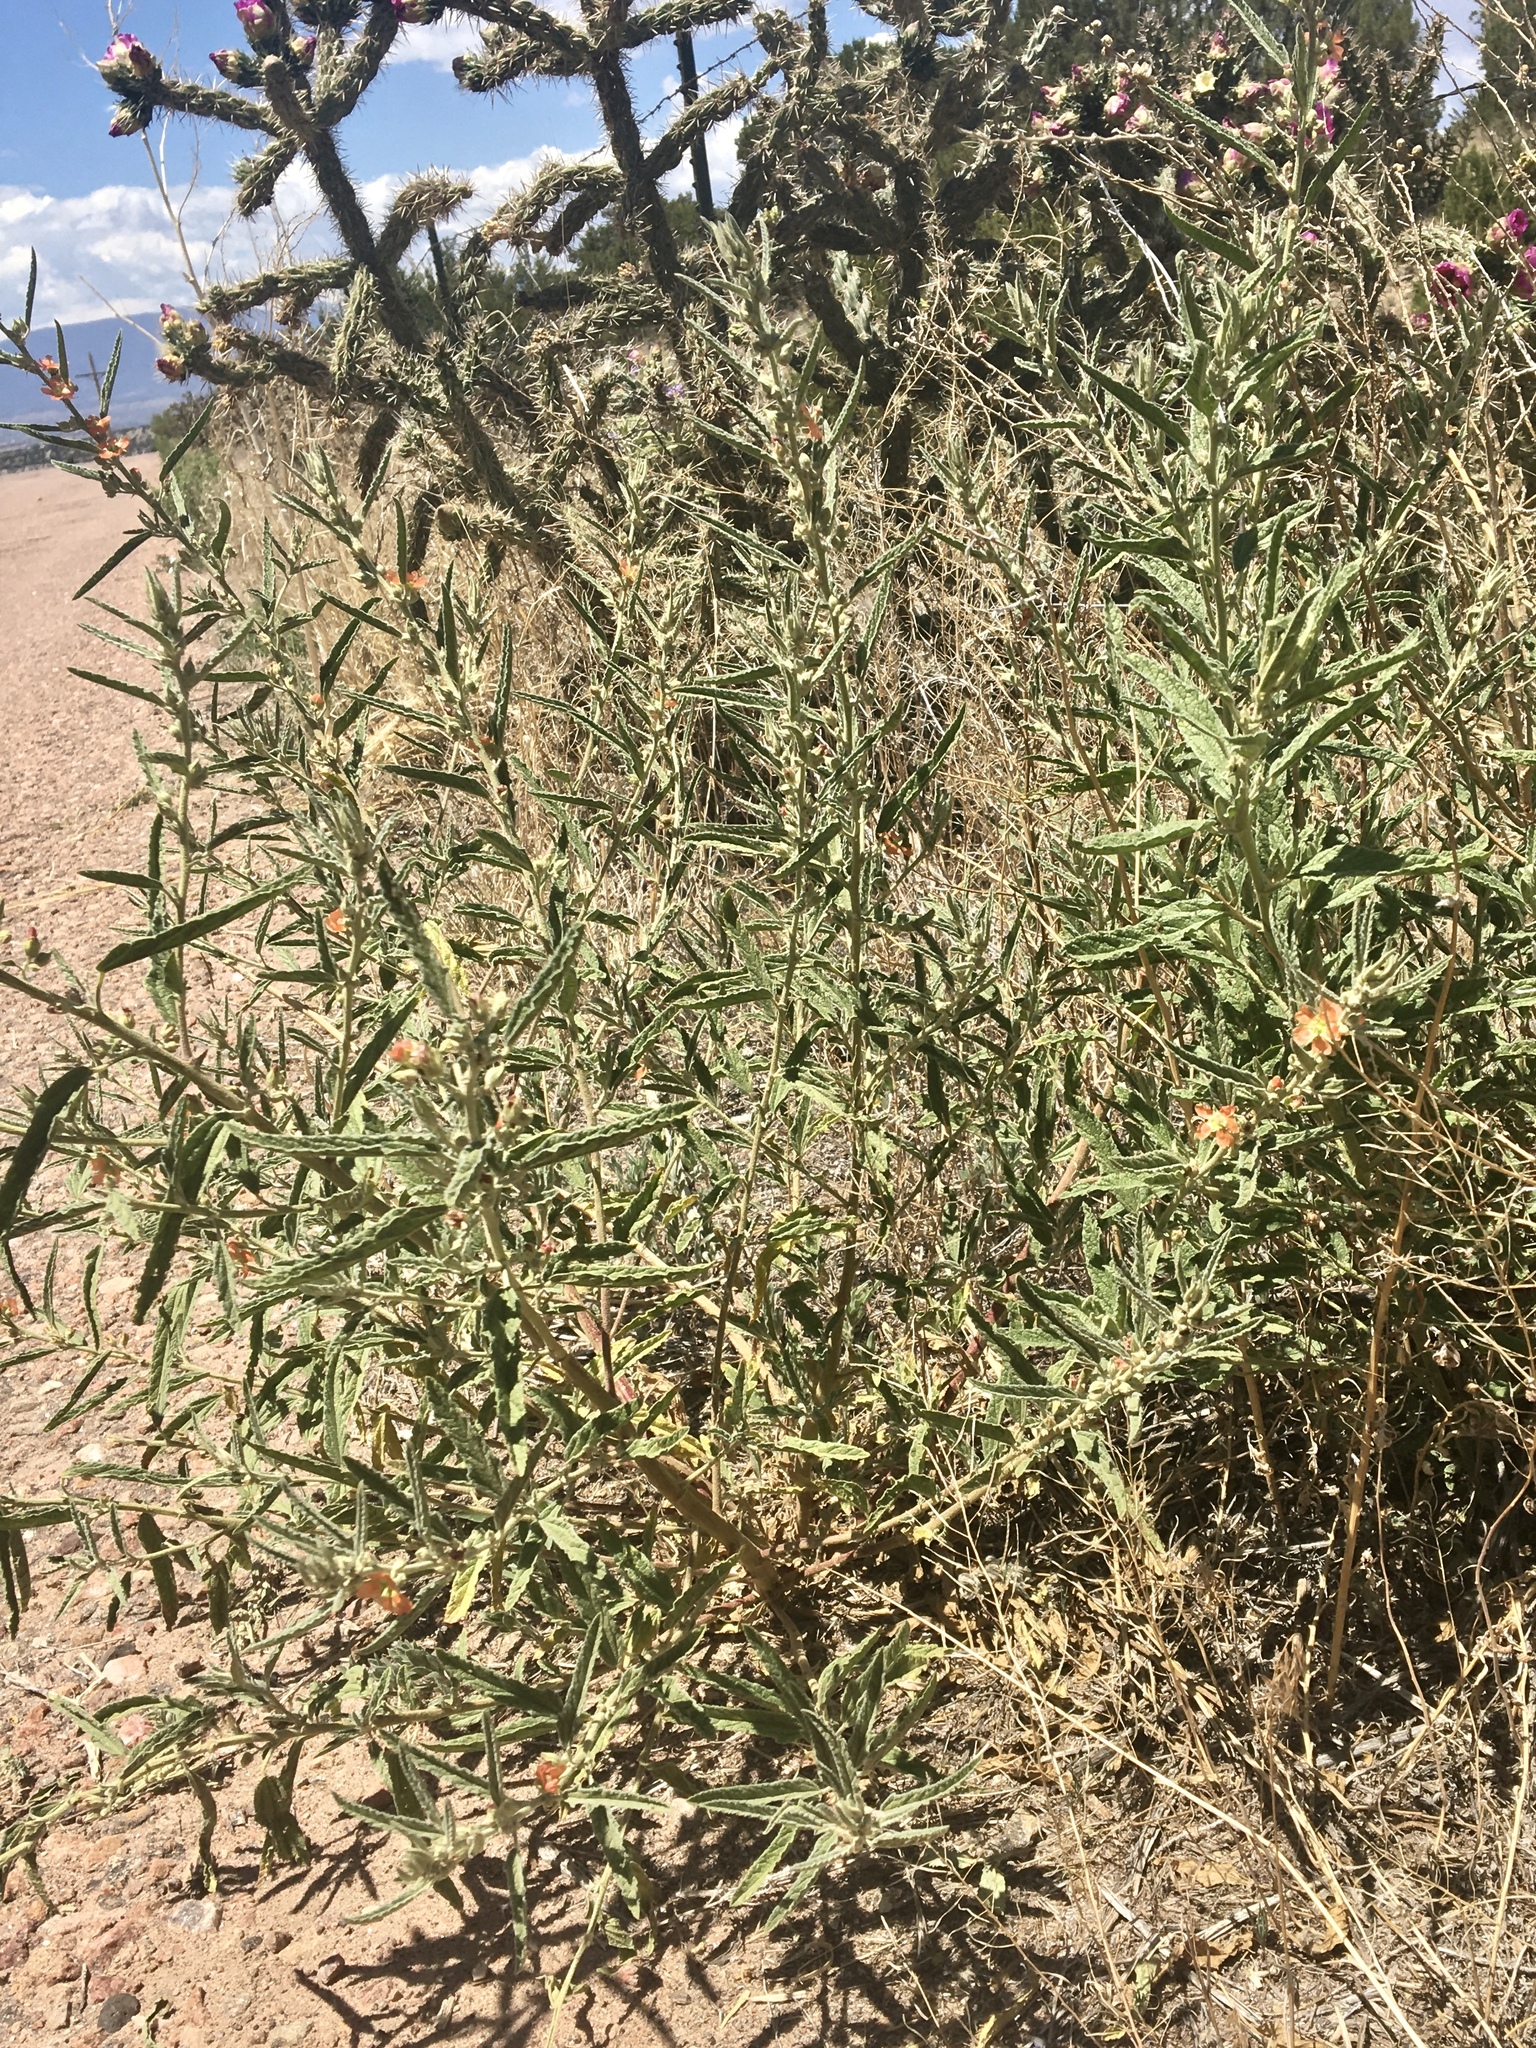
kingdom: Plantae
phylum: Tracheophyta
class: Magnoliopsida
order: Malvales
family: Malvaceae
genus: Sphaeralcea
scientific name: Sphaeralcea angustifolia
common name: Copper globe-mallow
